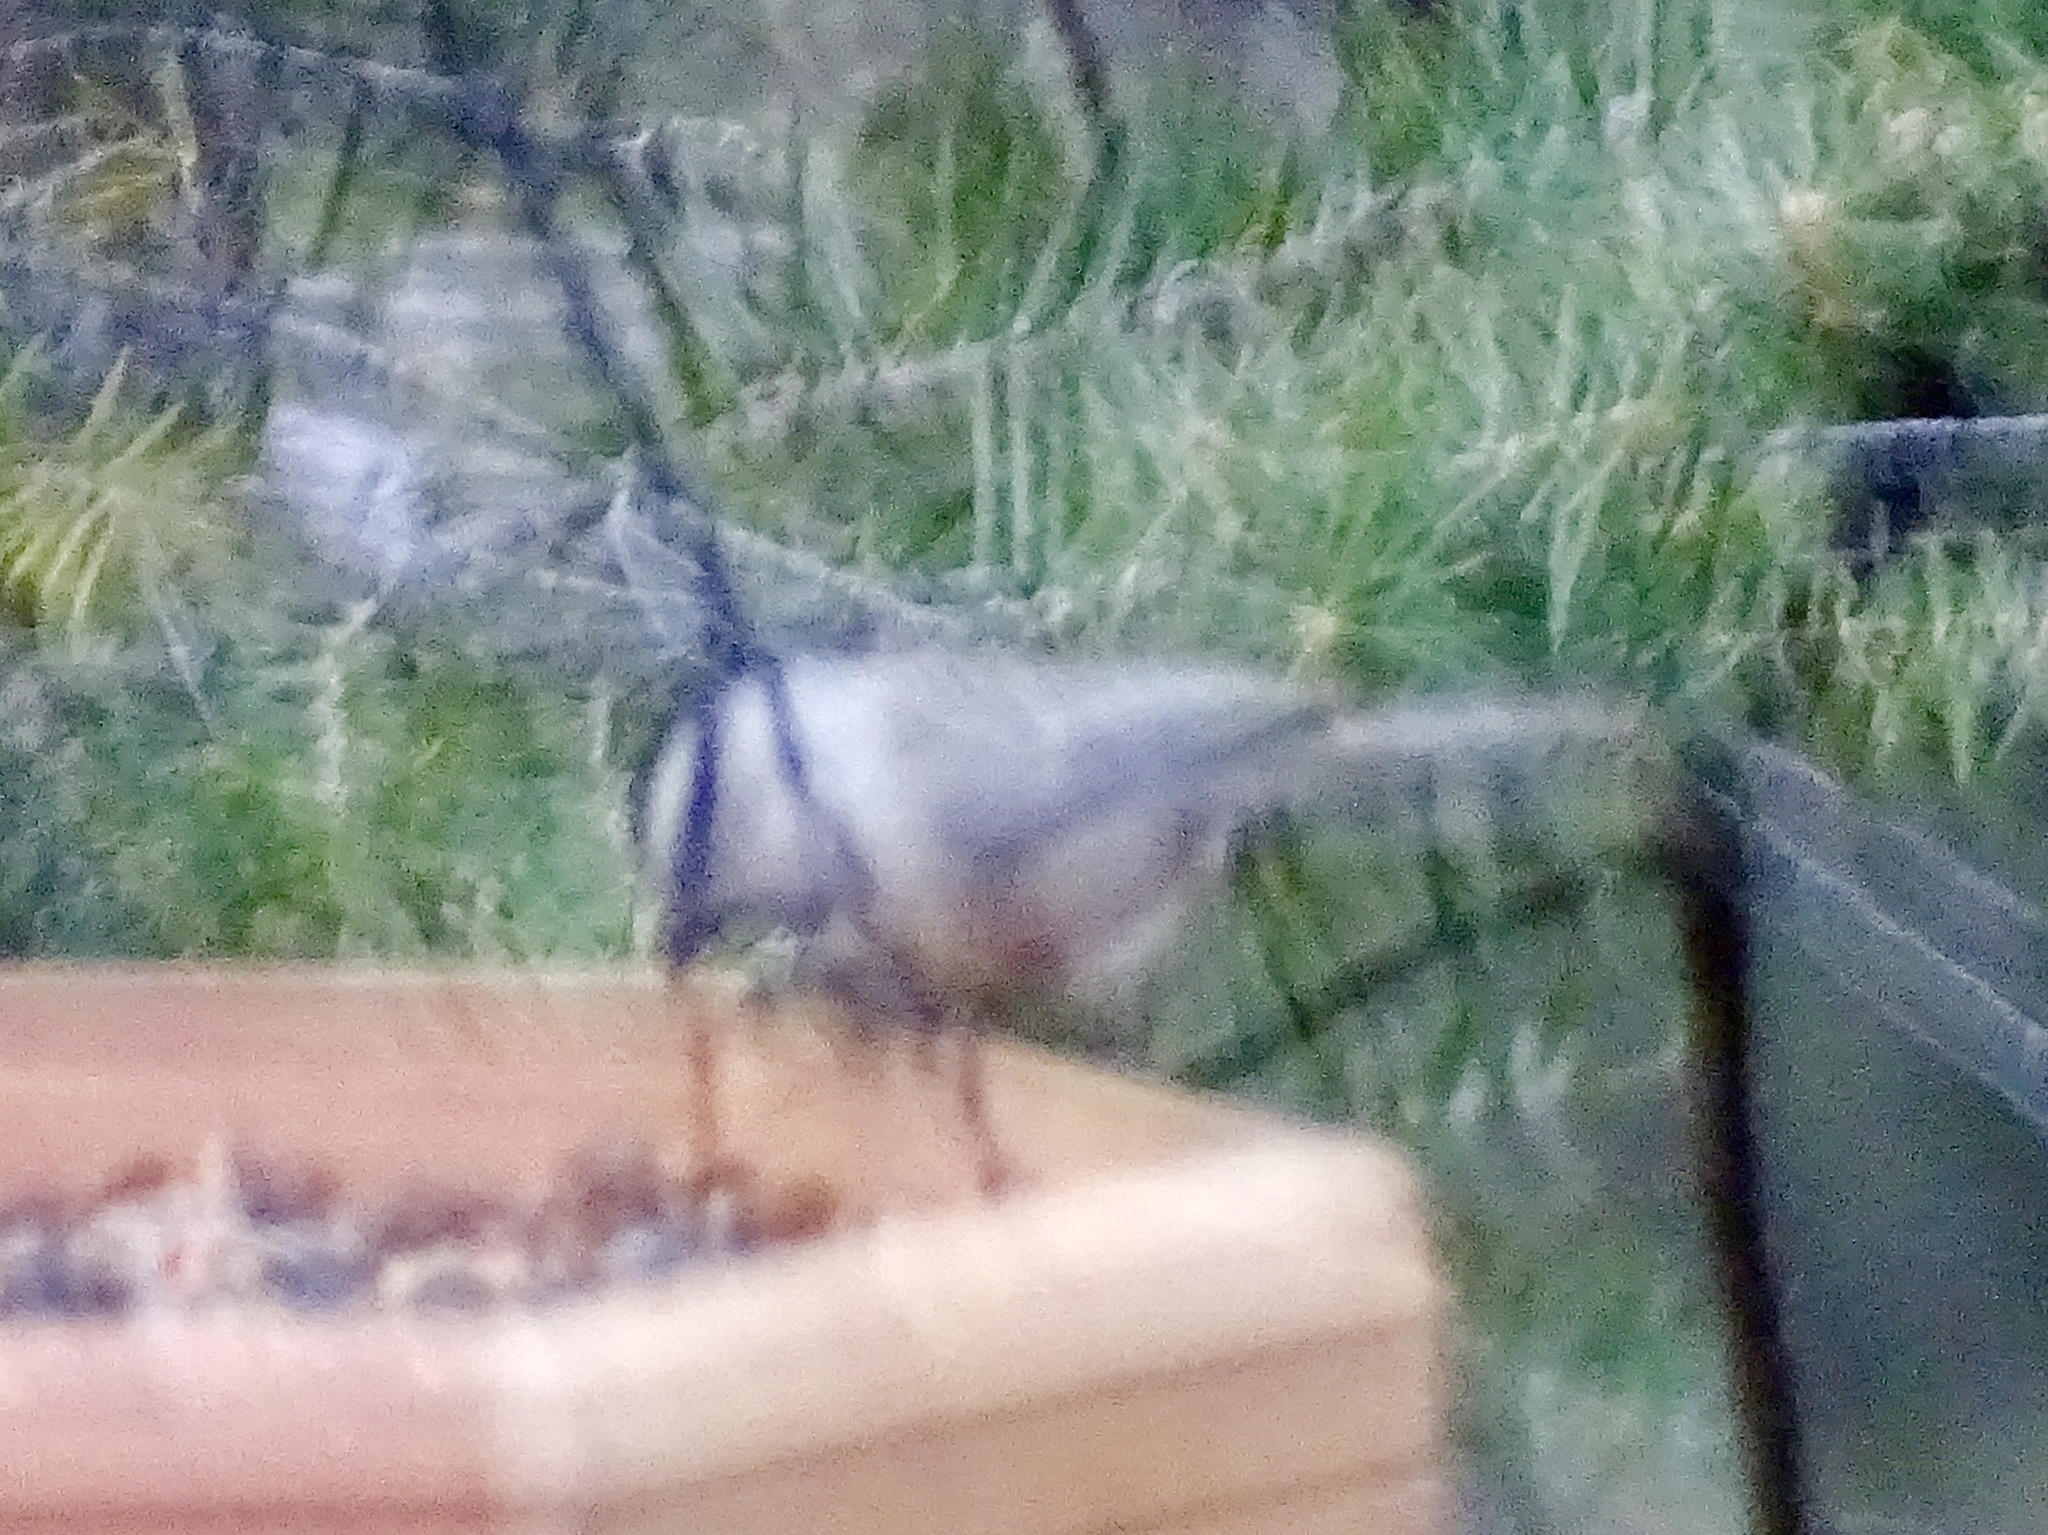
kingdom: Animalia
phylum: Chordata
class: Aves
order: Passeriformes
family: Paridae
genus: Poecile
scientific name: Poecile gambeli
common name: Mountain chickadee
